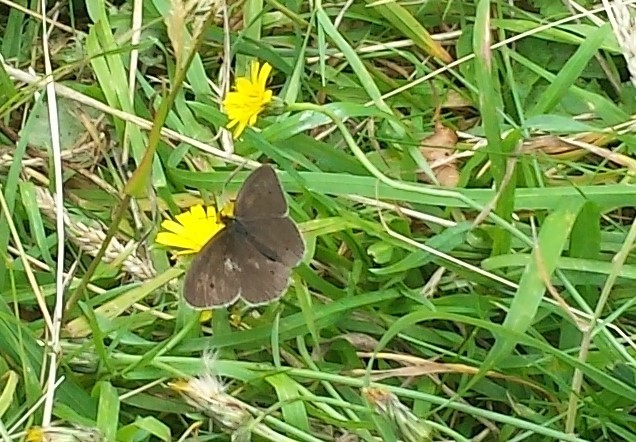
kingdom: Animalia
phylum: Arthropoda
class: Insecta
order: Lepidoptera
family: Nymphalidae
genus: Aphantopus
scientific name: Aphantopus hyperantus
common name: Ringlet
